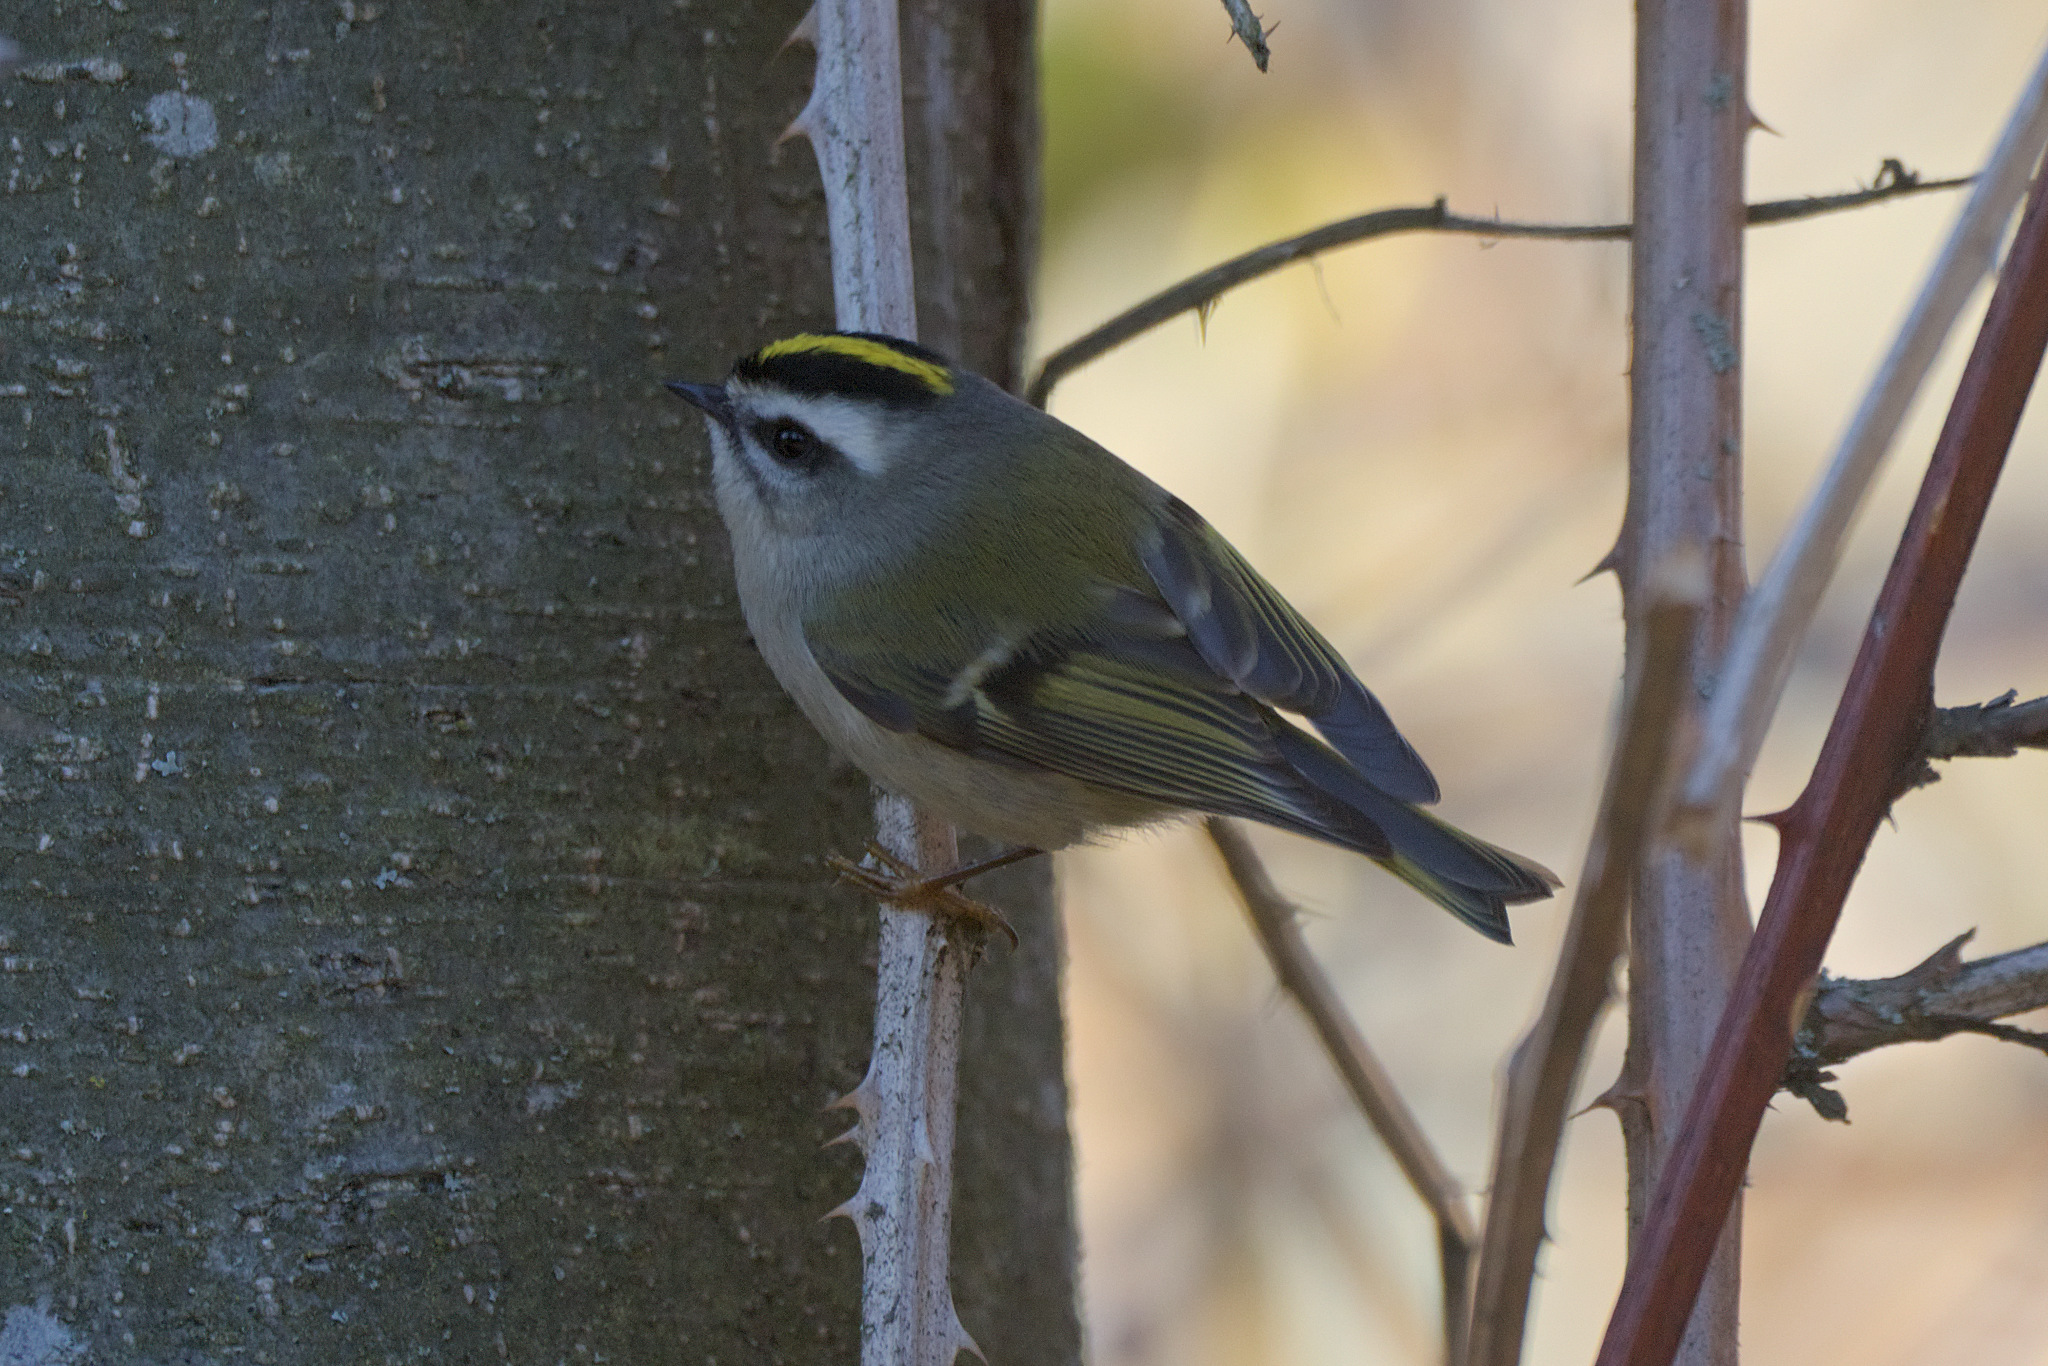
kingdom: Animalia
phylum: Chordata
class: Aves
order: Passeriformes
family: Regulidae
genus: Regulus
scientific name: Regulus satrapa
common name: Golden-crowned kinglet
